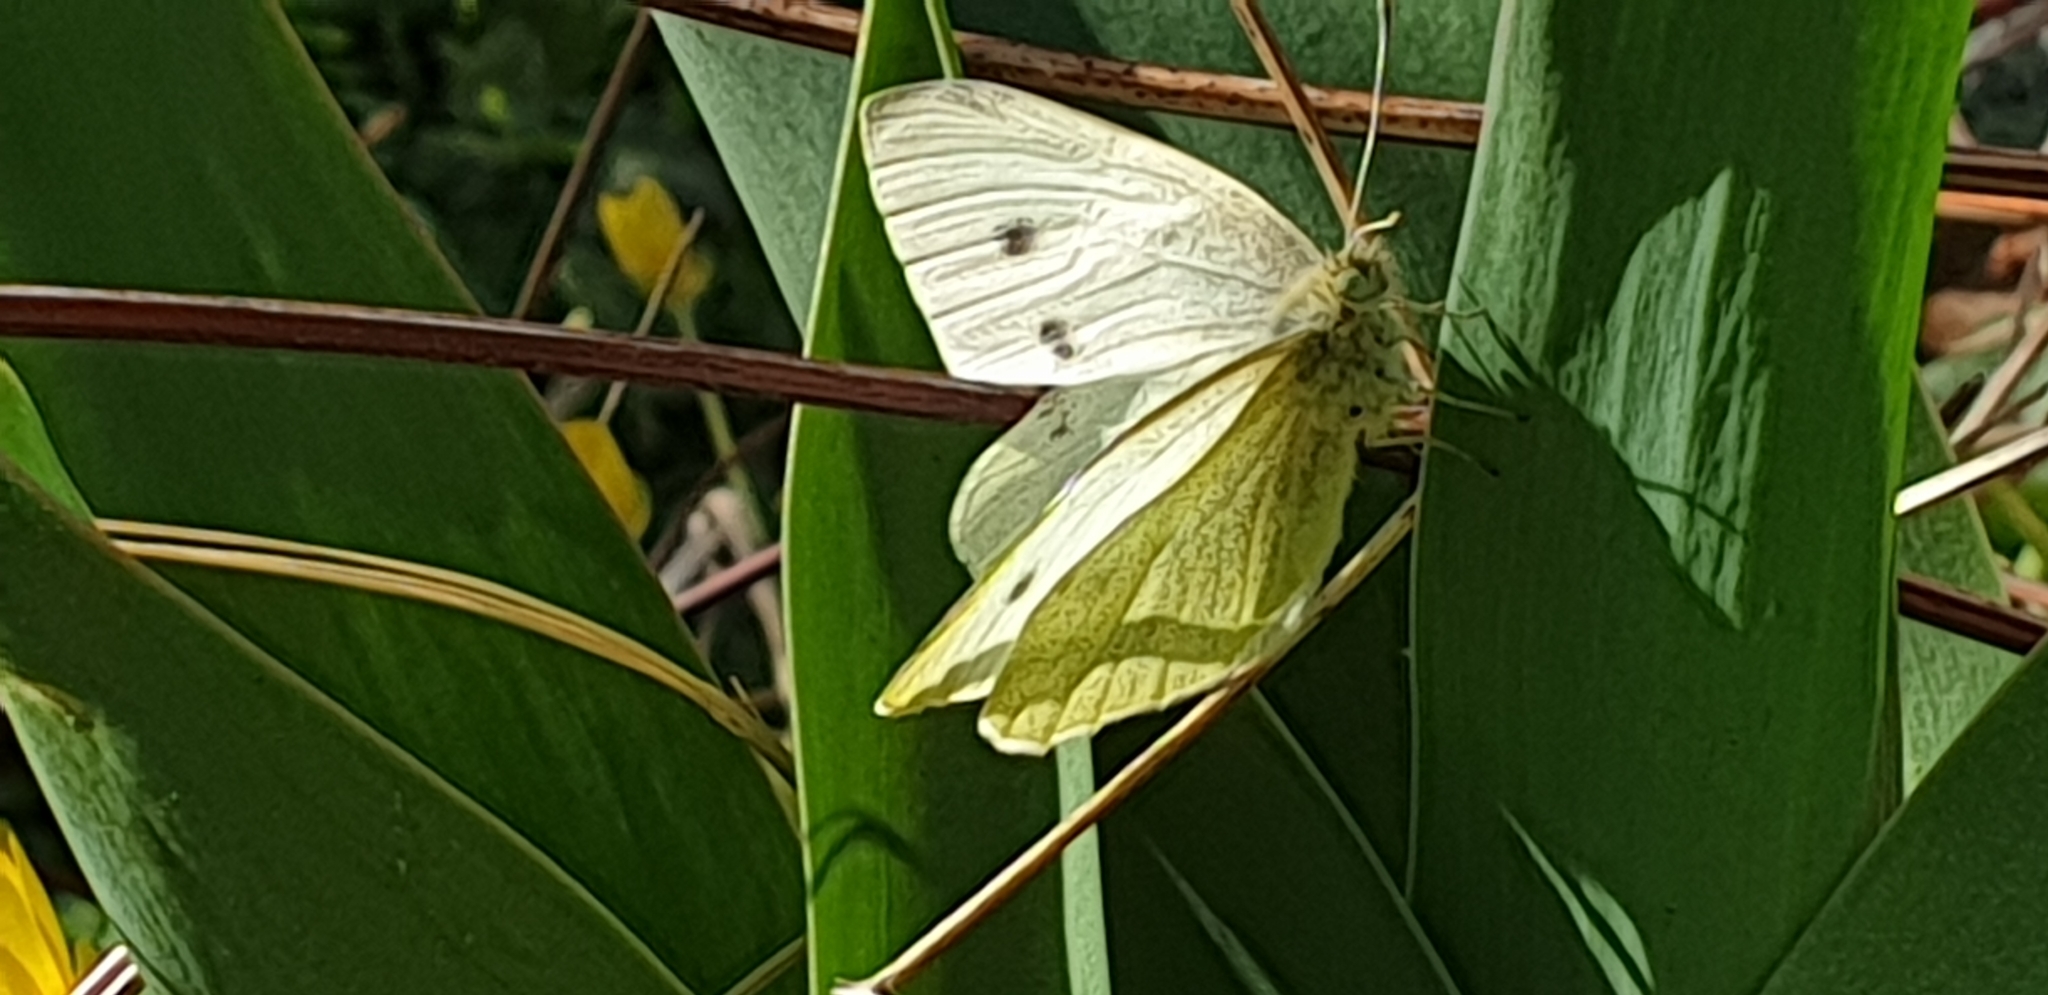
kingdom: Animalia
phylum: Arthropoda
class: Insecta
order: Lepidoptera
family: Pieridae
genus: Pieris
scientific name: Pieris rapae
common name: Small white
